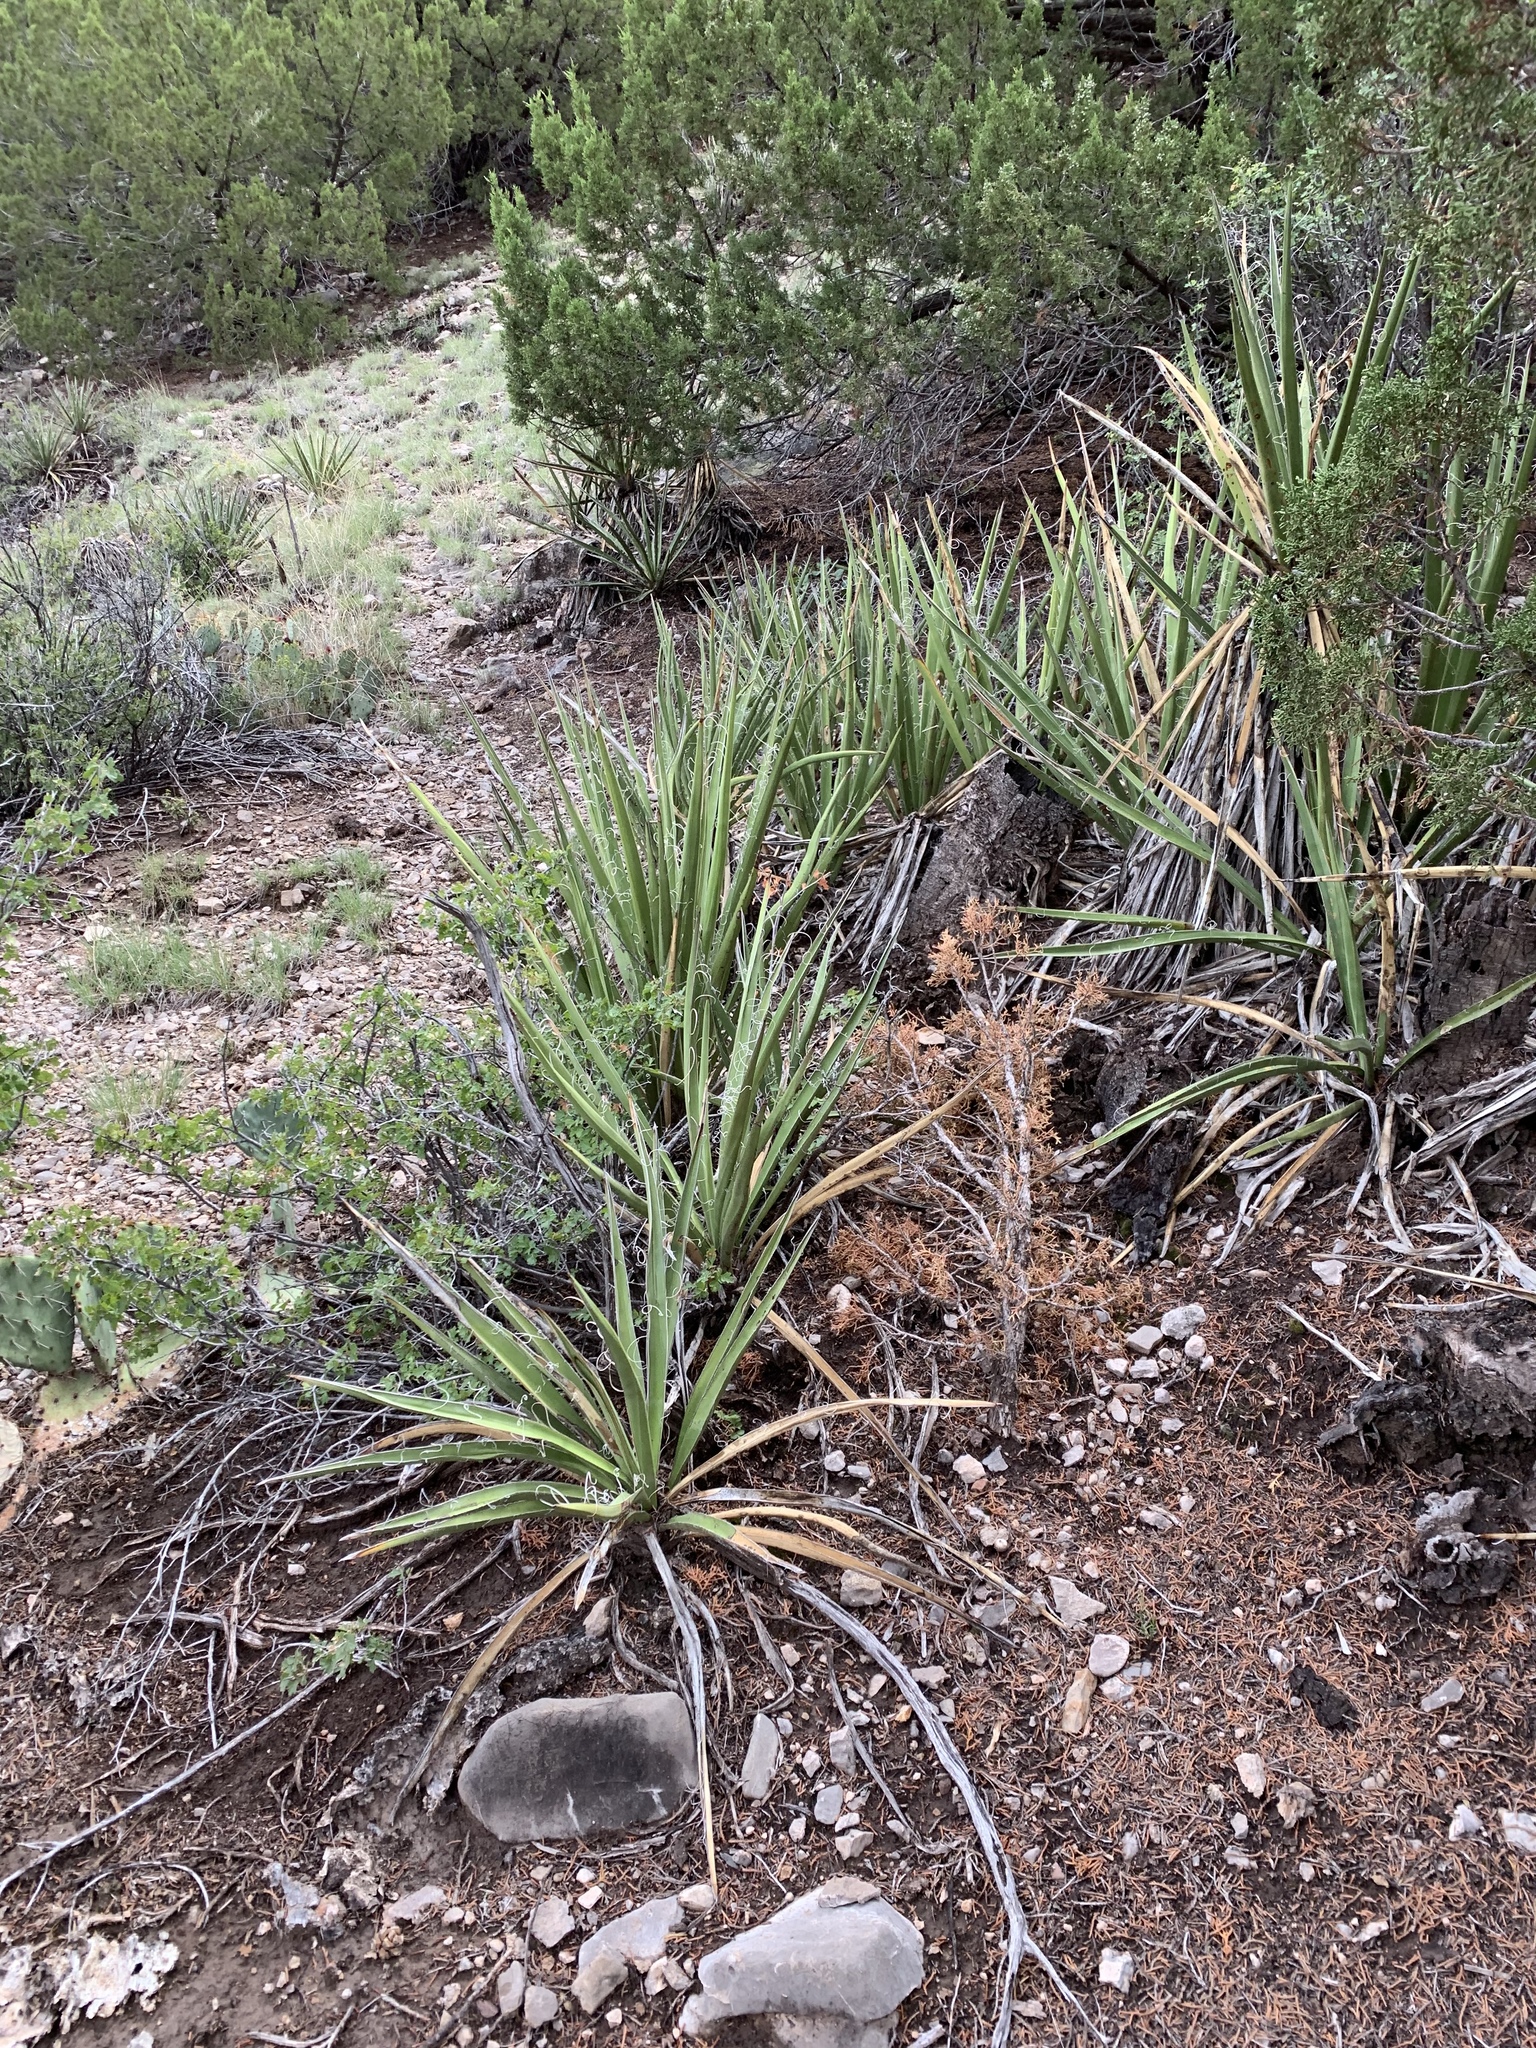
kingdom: Plantae
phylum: Tracheophyta
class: Liliopsida
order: Asparagales
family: Asparagaceae
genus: Yucca
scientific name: Yucca baccata
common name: Banana yucca
